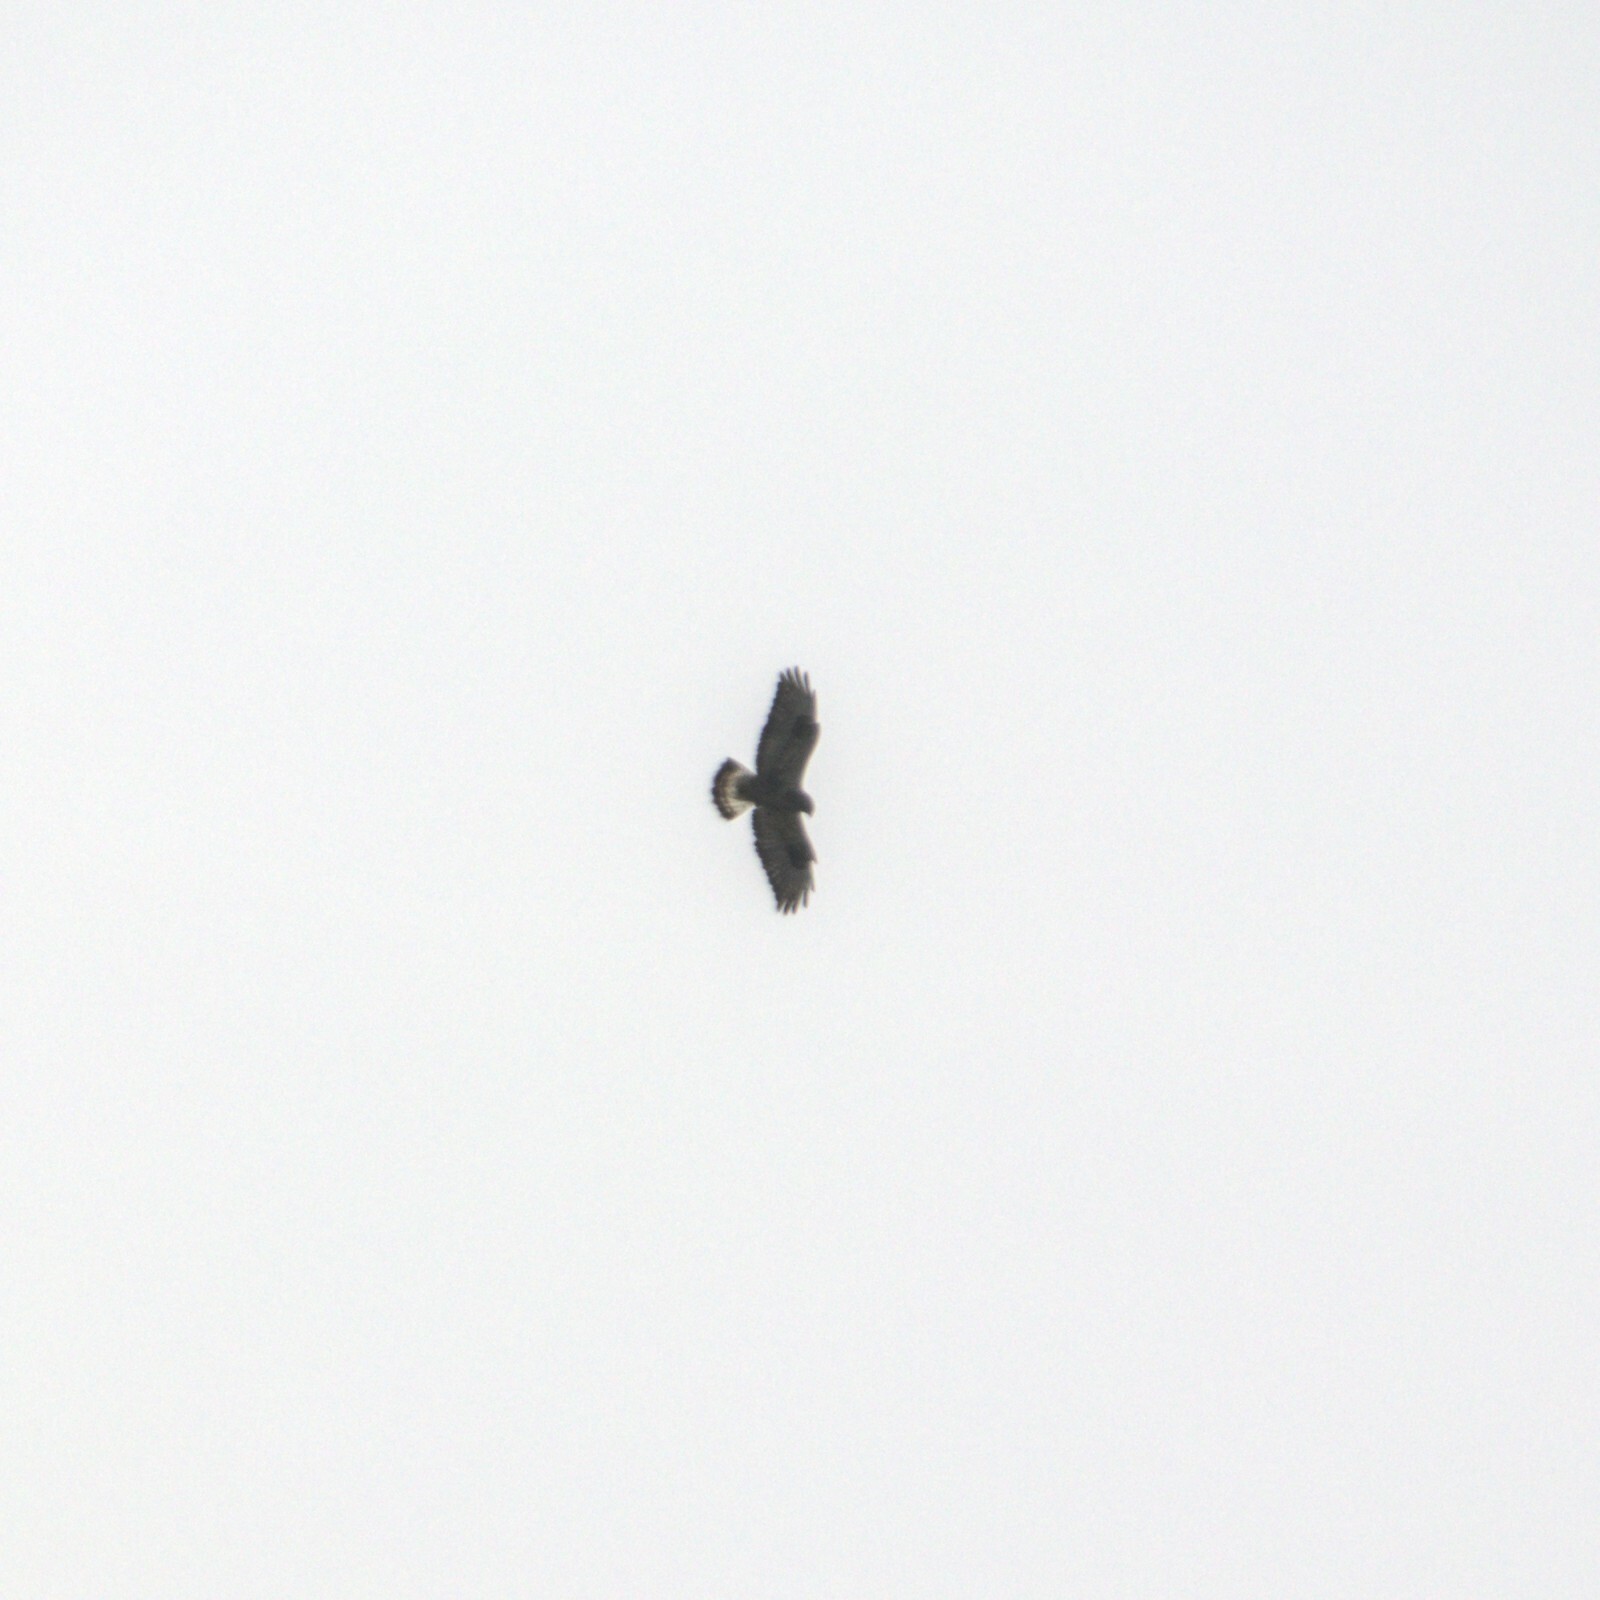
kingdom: Animalia
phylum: Chordata
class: Aves
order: Accipitriformes
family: Accipitridae
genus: Buteo
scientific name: Buteo lagopus
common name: Rough-legged buzzard
